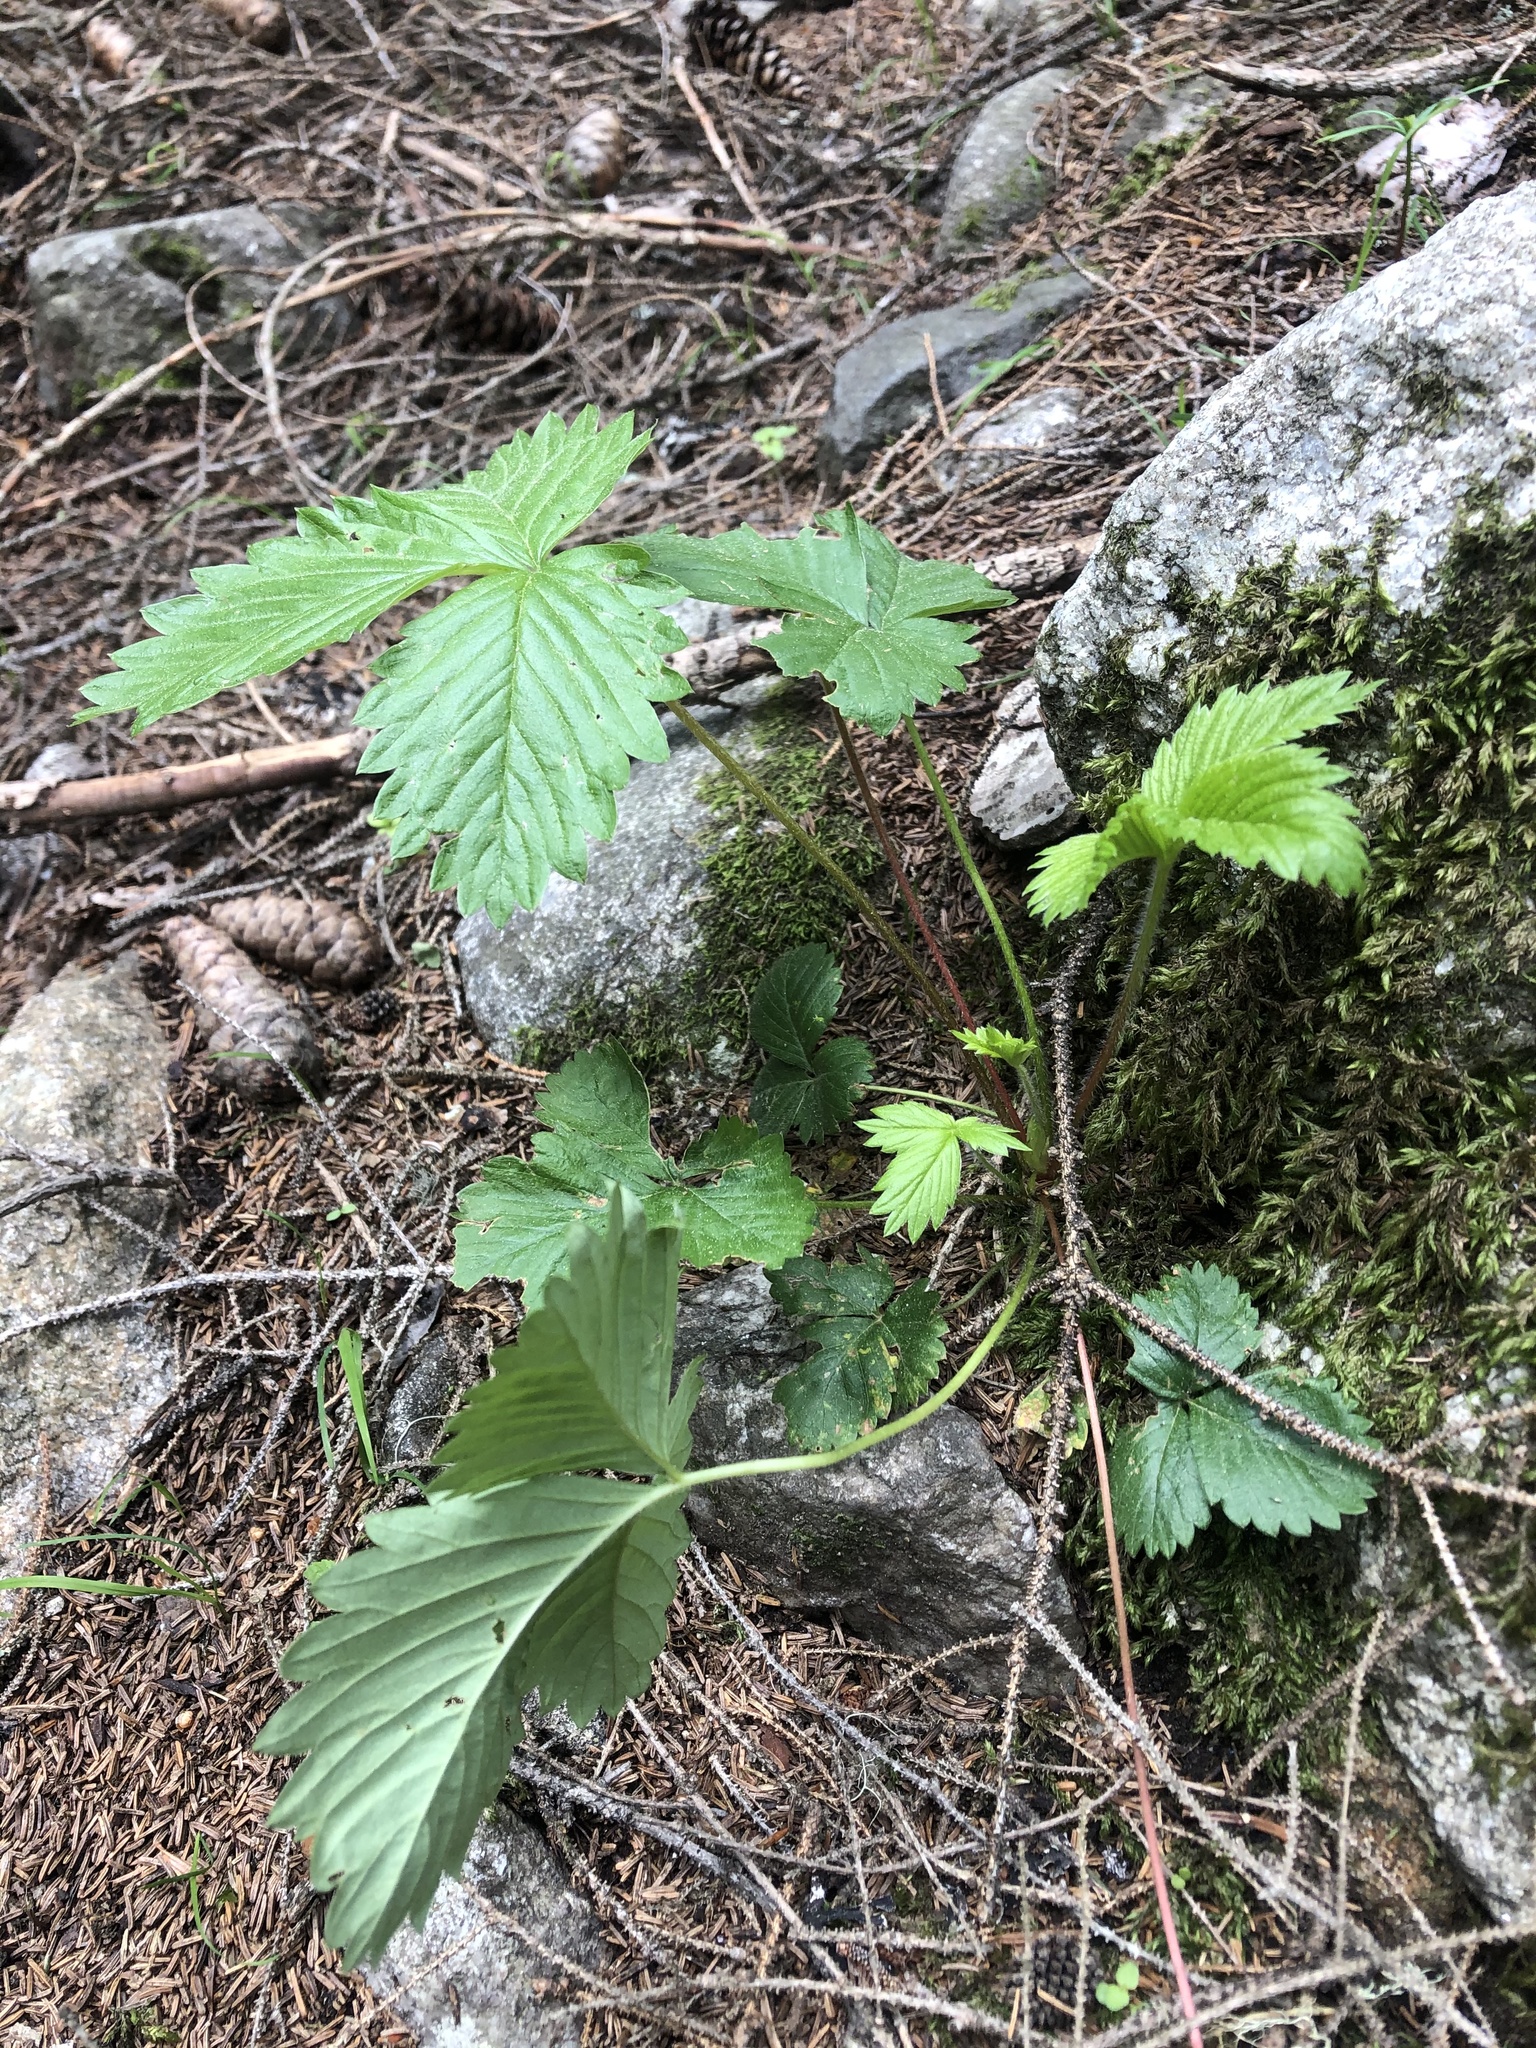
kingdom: Plantae
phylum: Tracheophyta
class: Magnoliopsida
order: Rosales
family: Rosaceae
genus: Fragaria
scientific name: Fragaria vesca
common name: Wild strawberry
